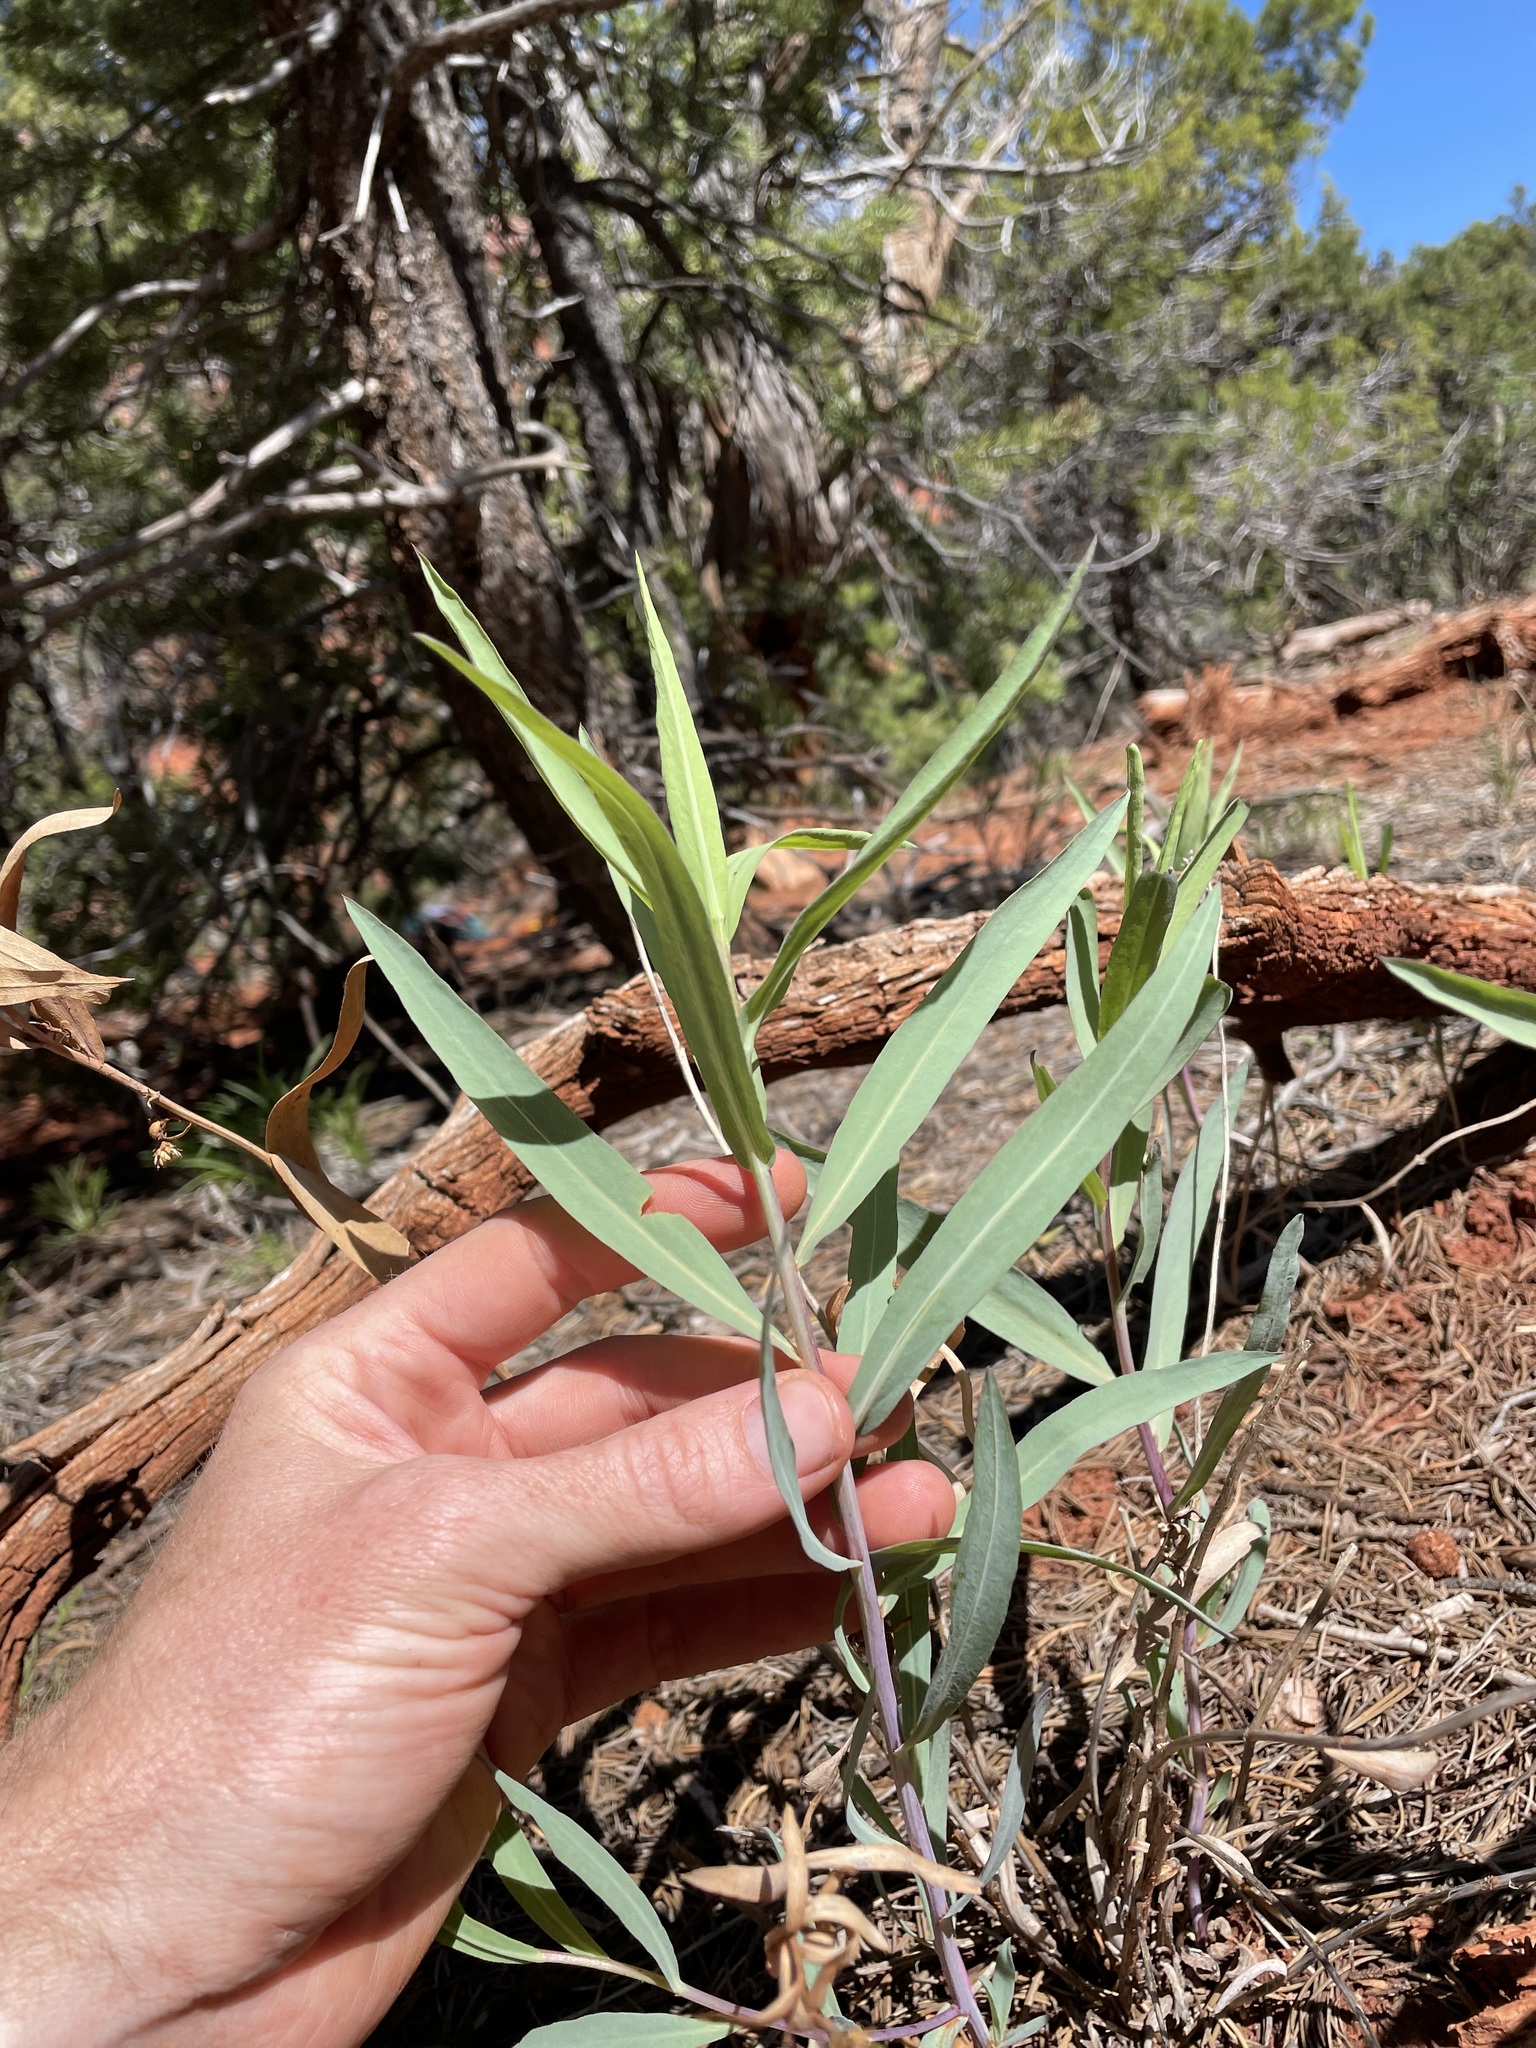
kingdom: Plantae
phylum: Tracheophyta
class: Magnoliopsida
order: Asterales
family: Asteraceae
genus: Eurybia
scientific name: Eurybia glauca
